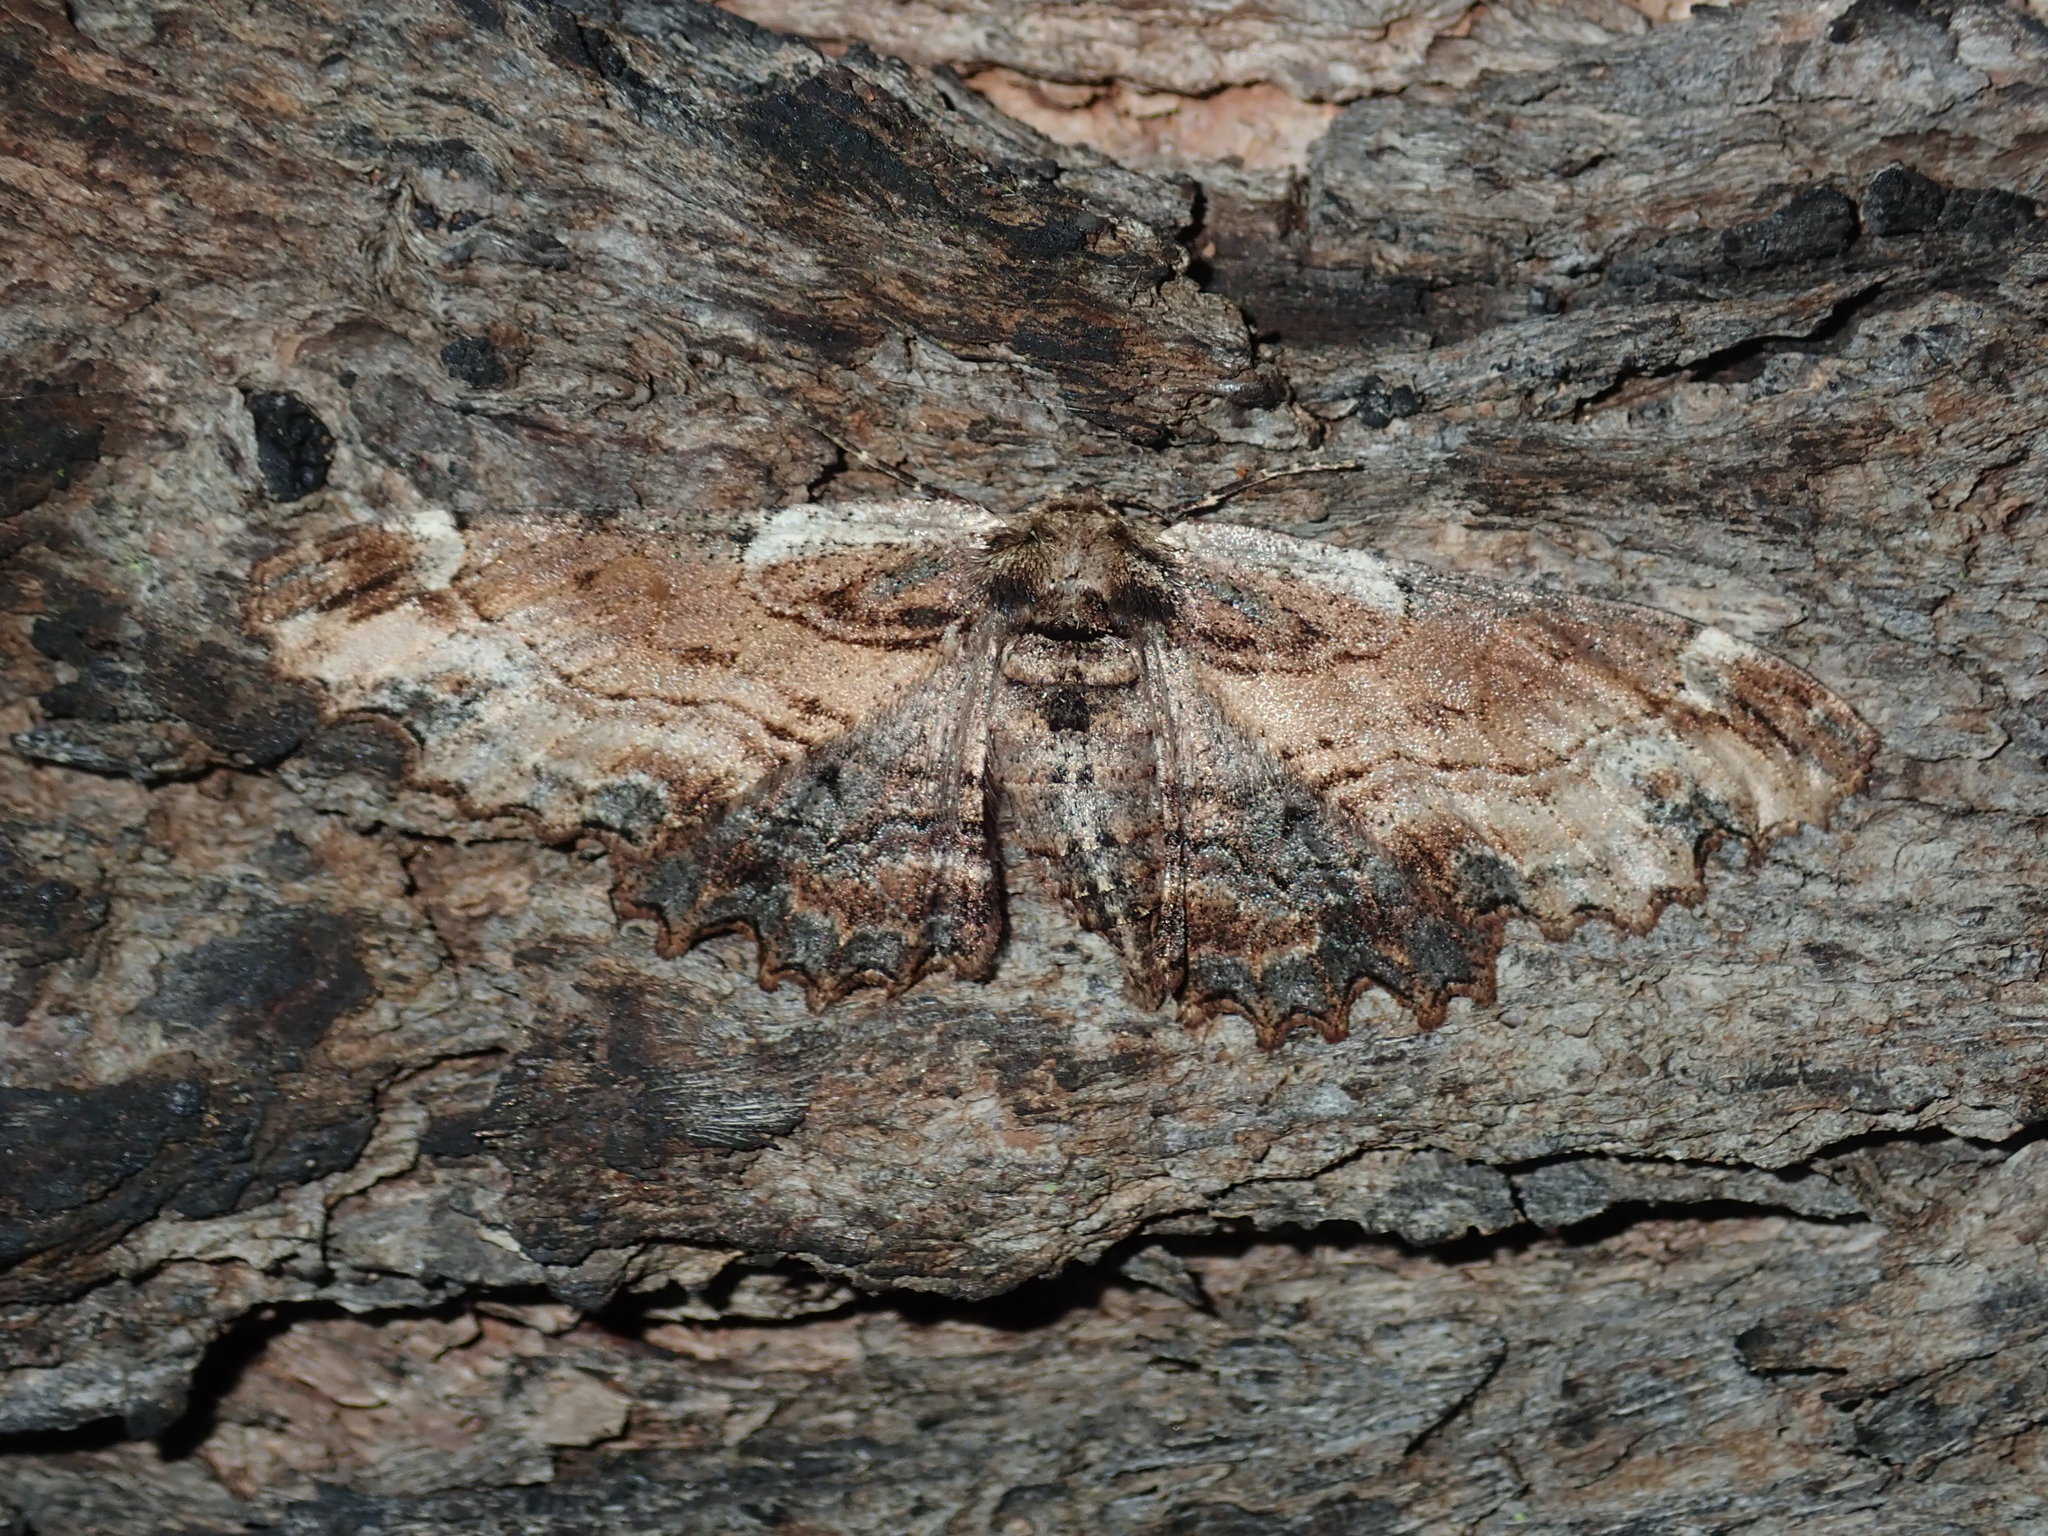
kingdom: Animalia
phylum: Arthropoda
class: Insecta
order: Lepidoptera
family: Geometridae
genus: Pholodes
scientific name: Pholodes sinistraria
